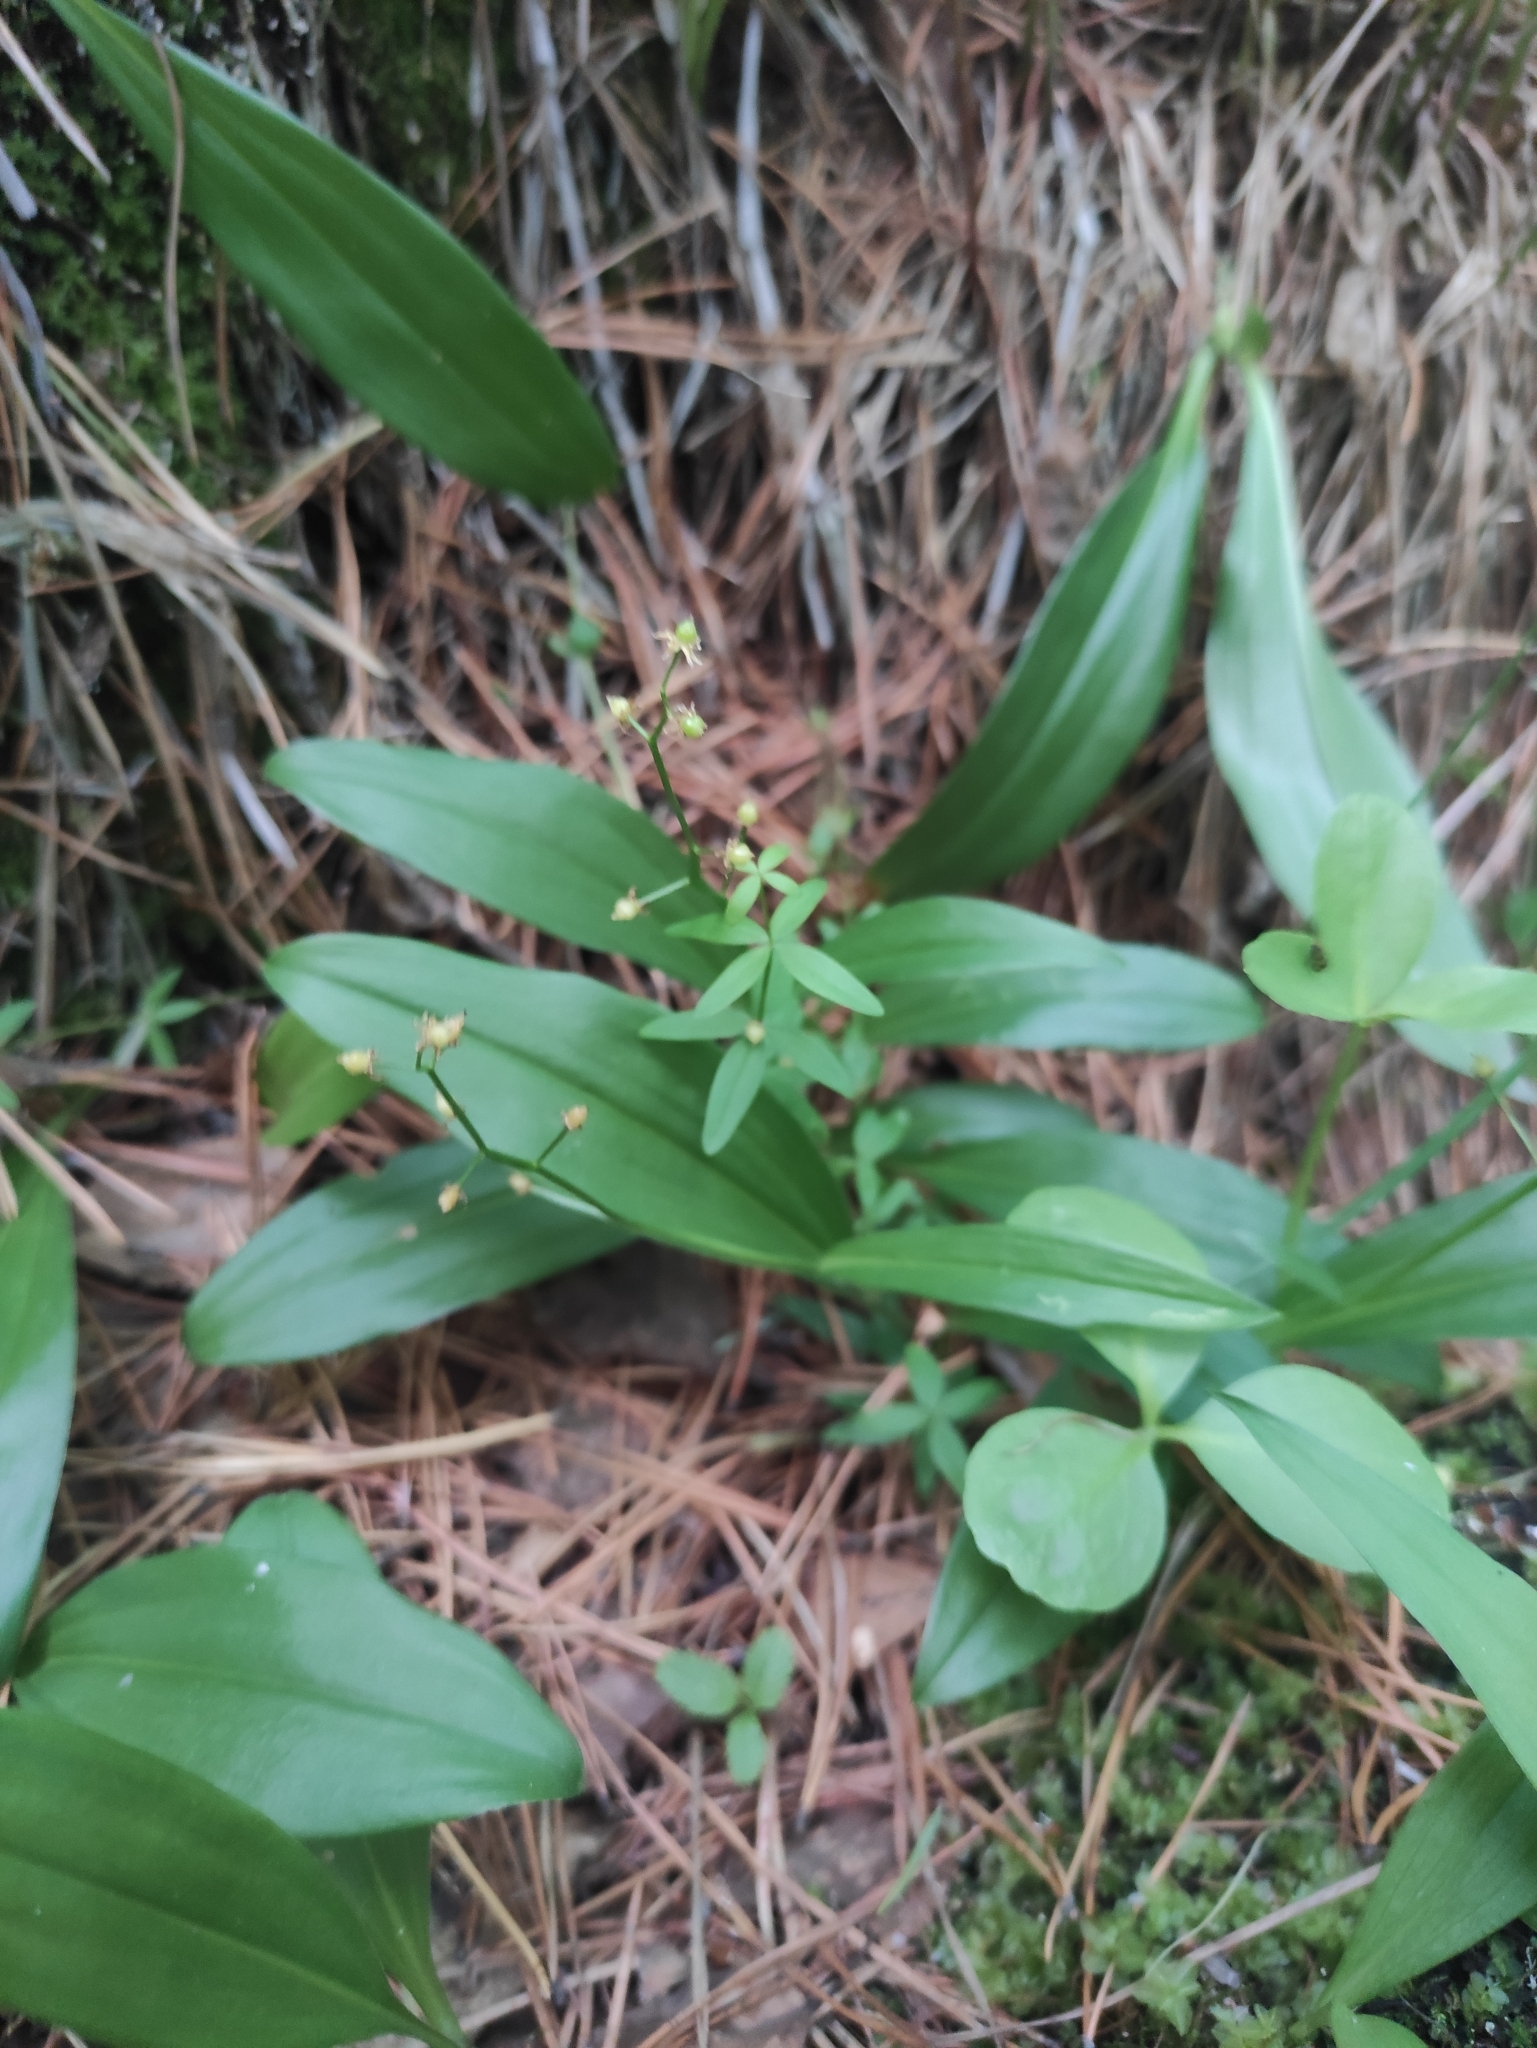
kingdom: Plantae
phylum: Tracheophyta
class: Liliopsida
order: Asparagales
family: Asparagaceae
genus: Maianthemum
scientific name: Maianthemum trifolium
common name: Swamp false solomon's seal
